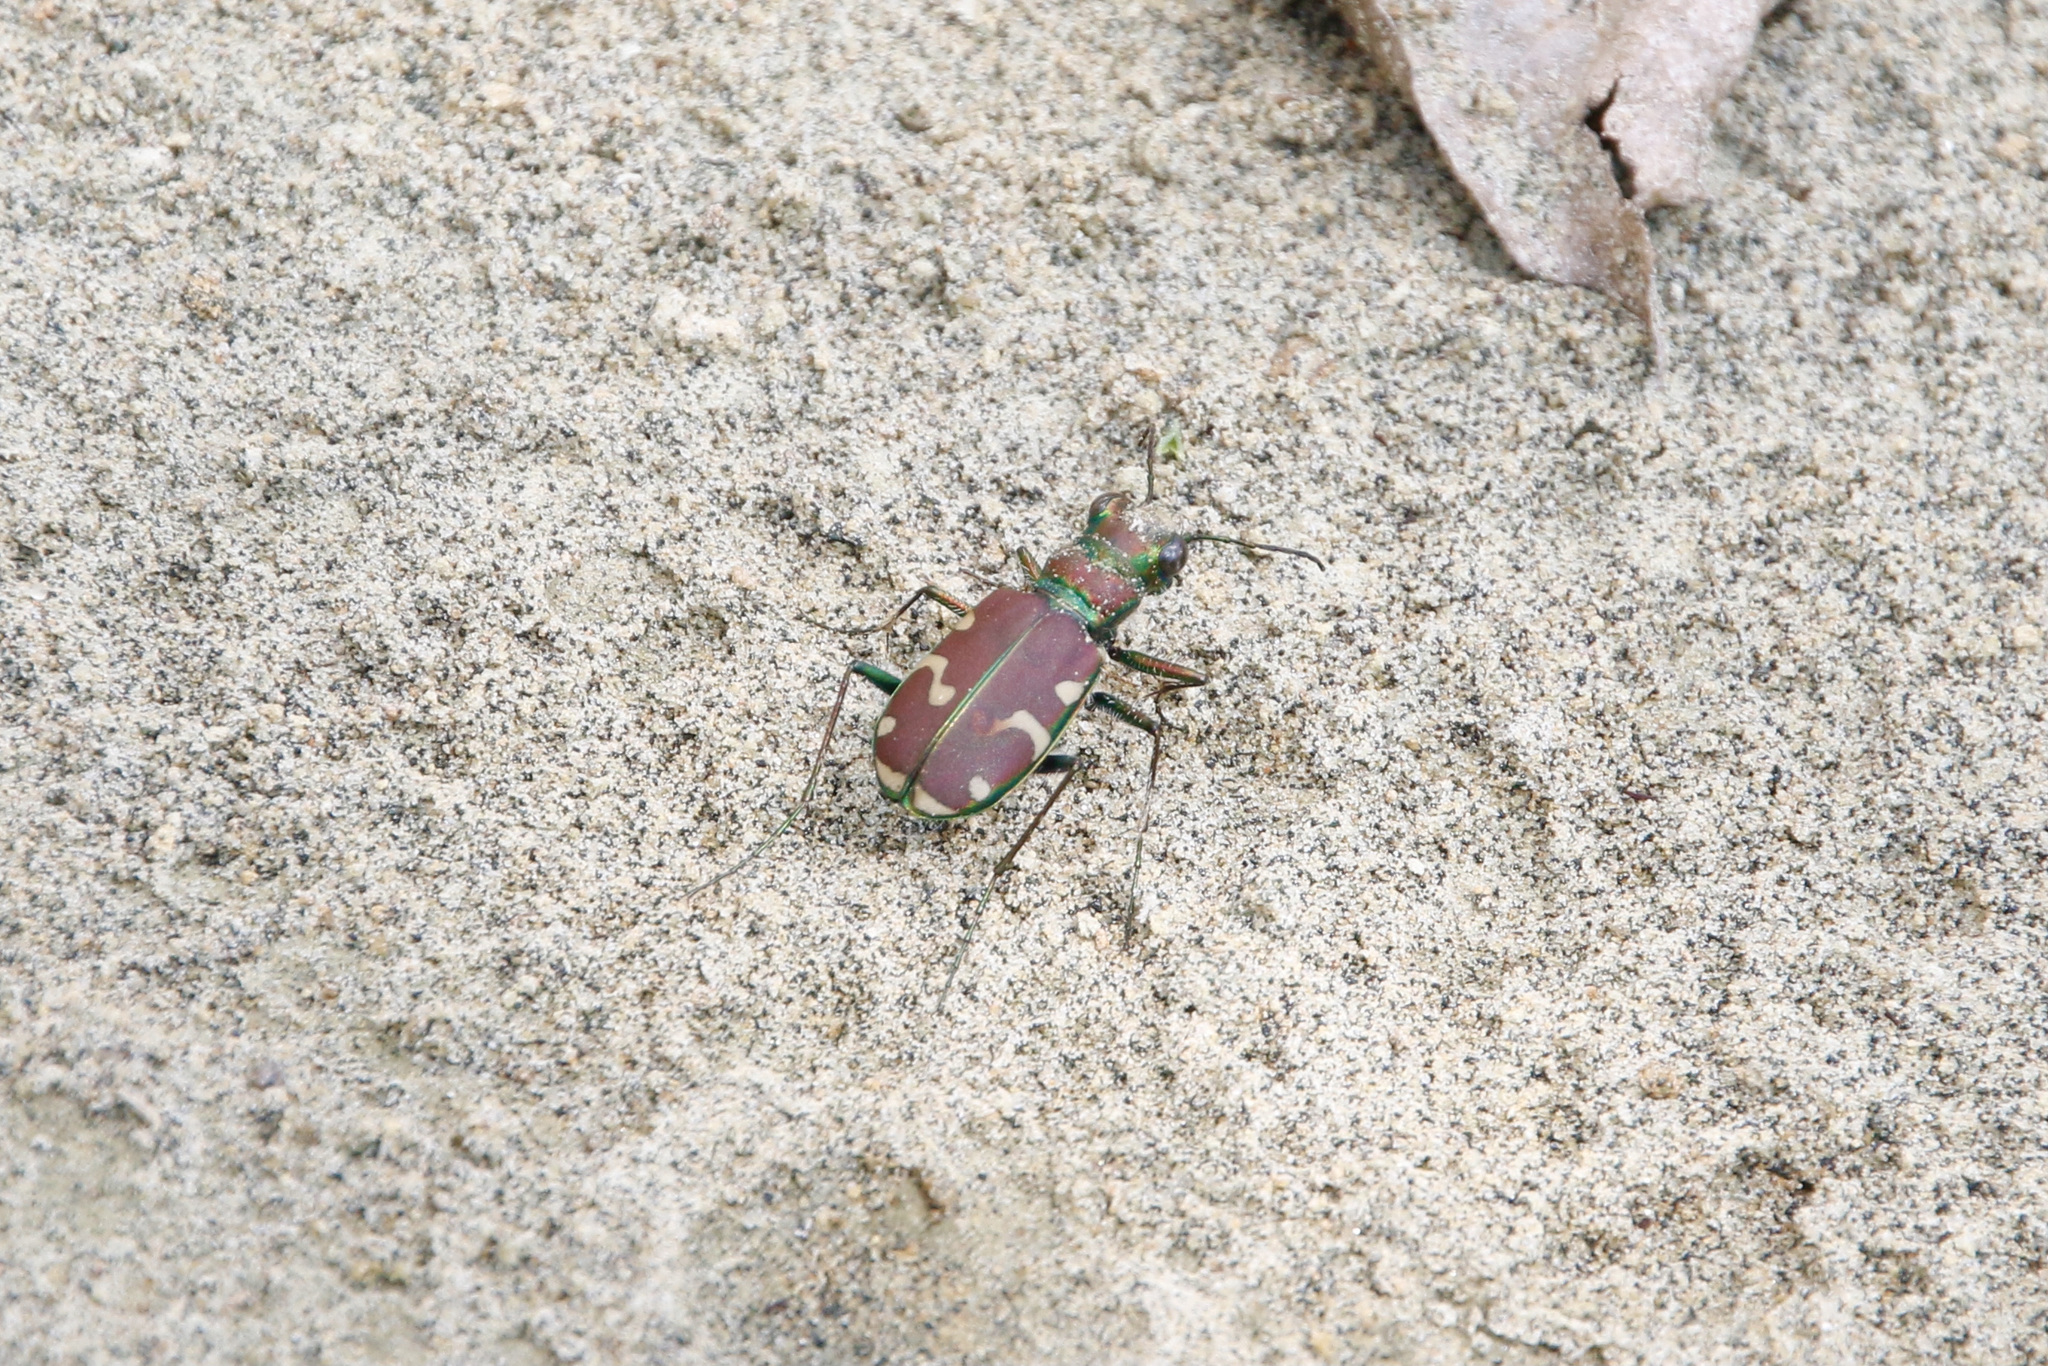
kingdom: Animalia
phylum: Arthropoda
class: Insecta
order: Coleoptera
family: Carabidae
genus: Cicindela
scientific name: Cicindela limbalis
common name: Common claybank tiger beetle
